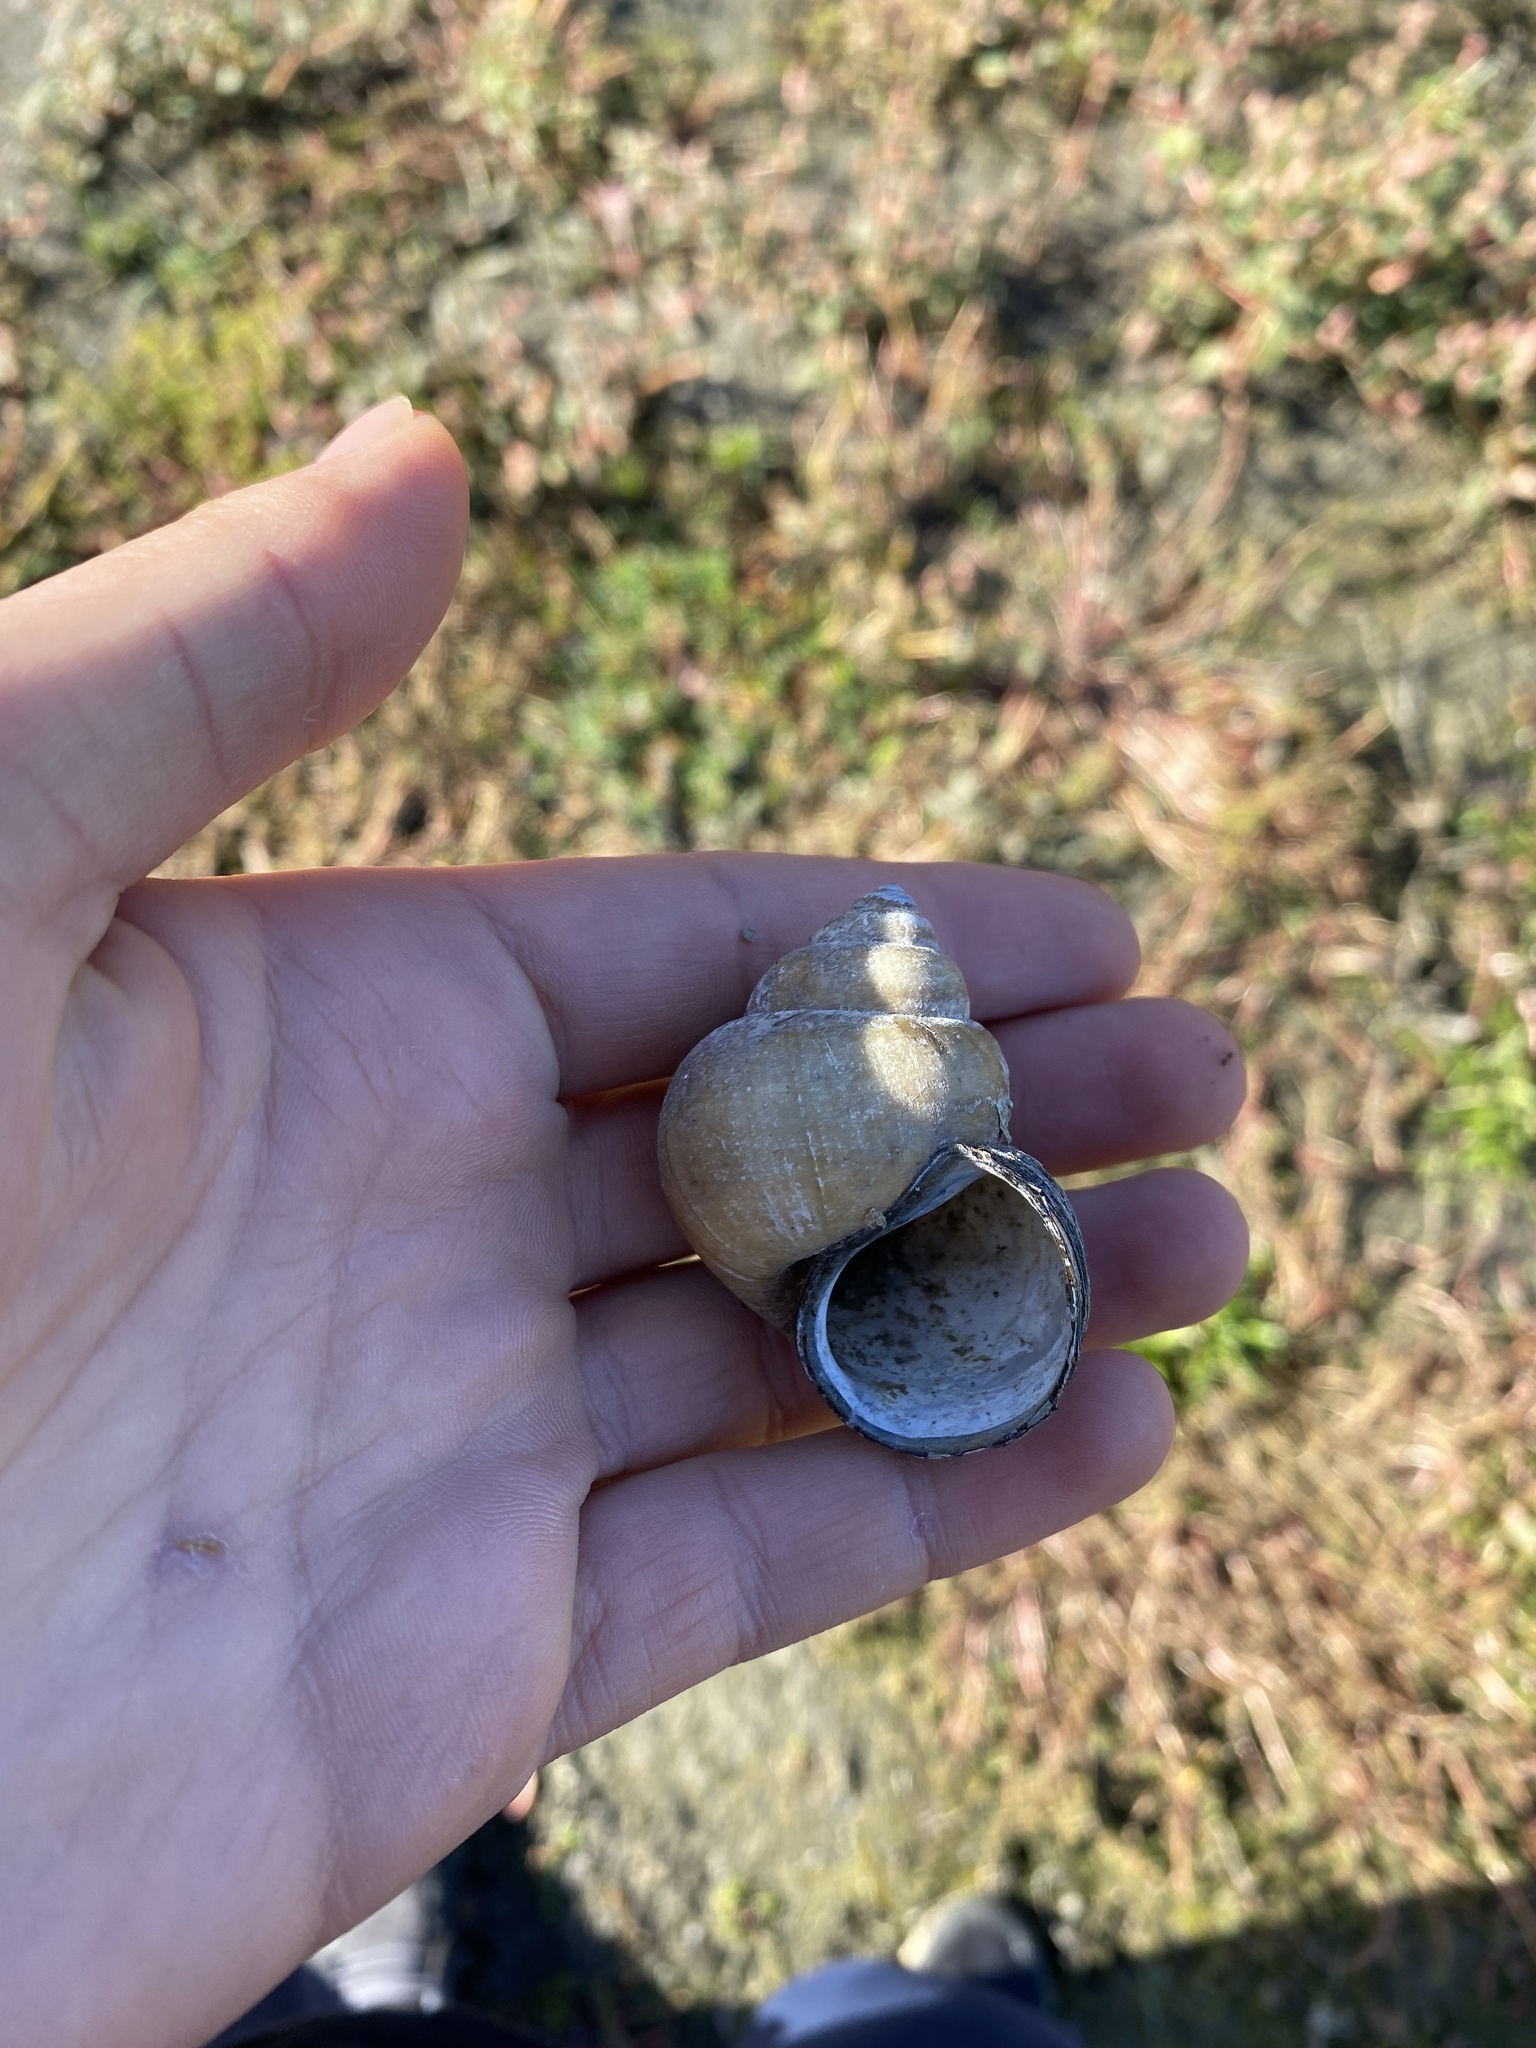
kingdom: Animalia
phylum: Mollusca
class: Gastropoda
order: Architaenioglossa
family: Viviparidae
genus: Cipangopaludina
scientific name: Cipangopaludina chinensis
